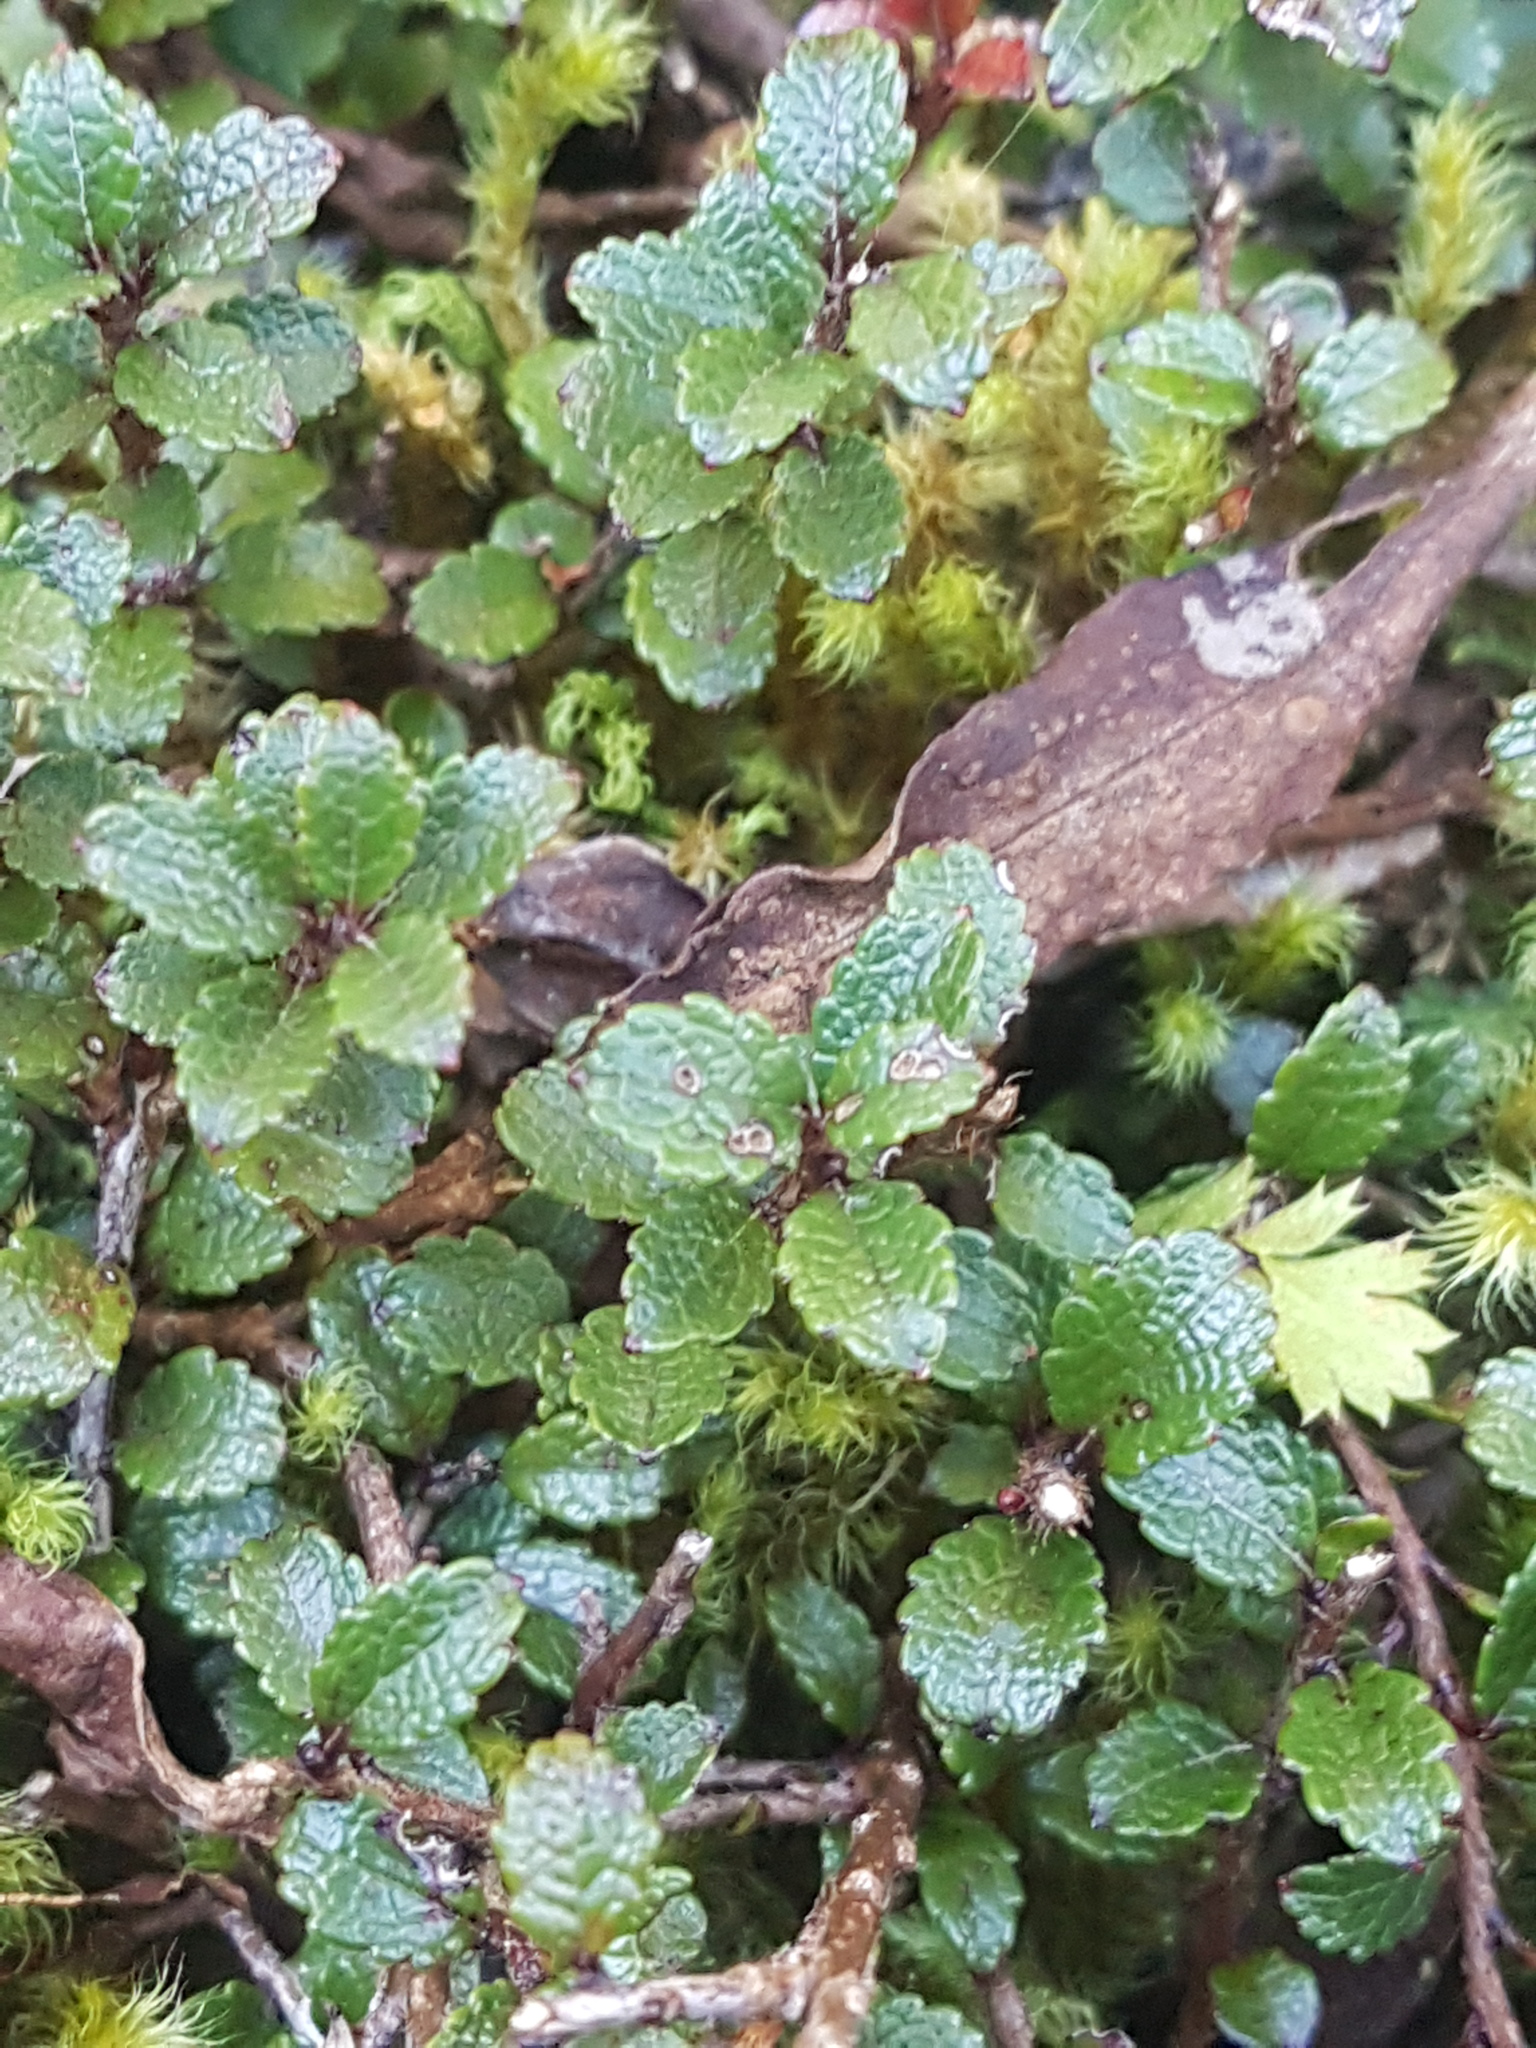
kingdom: Plantae
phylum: Tracheophyta
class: Magnoliopsida
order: Ericales
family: Ericaceae
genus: Gaultheria
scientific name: Gaultheria depressa
